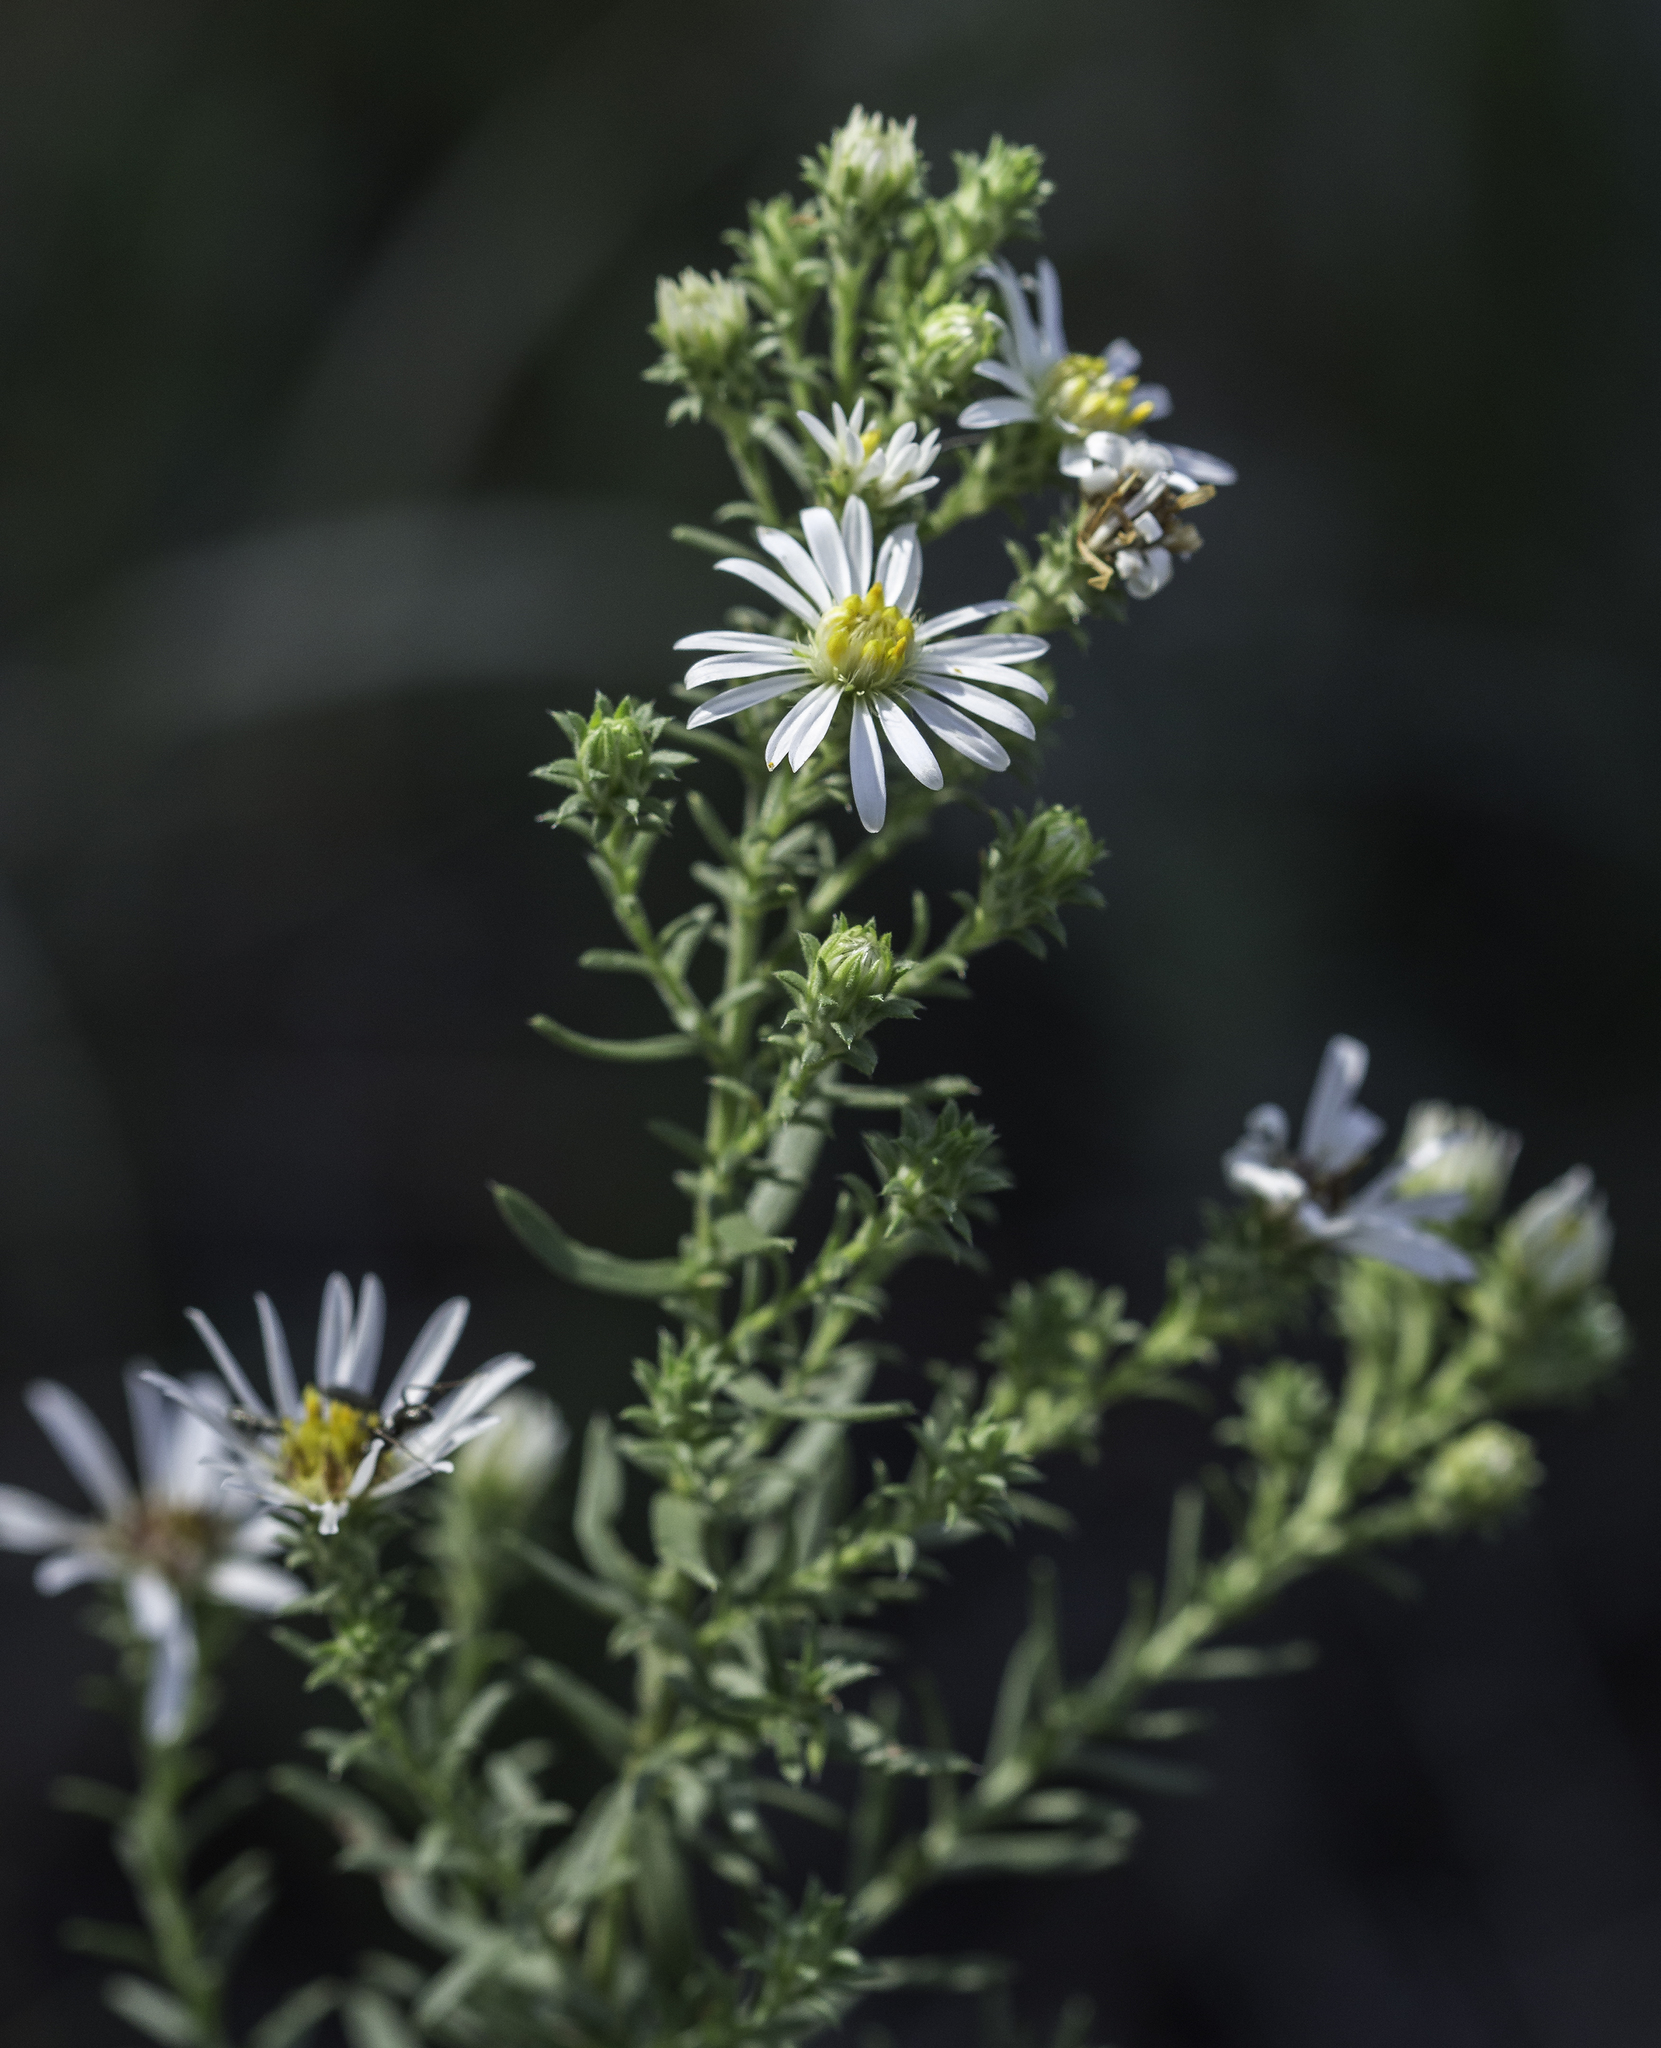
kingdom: Plantae
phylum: Tracheophyta
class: Magnoliopsida
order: Asterales
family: Asteraceae
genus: Symphyotrichum
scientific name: Symphyotrichum ericoides
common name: Heath aster
